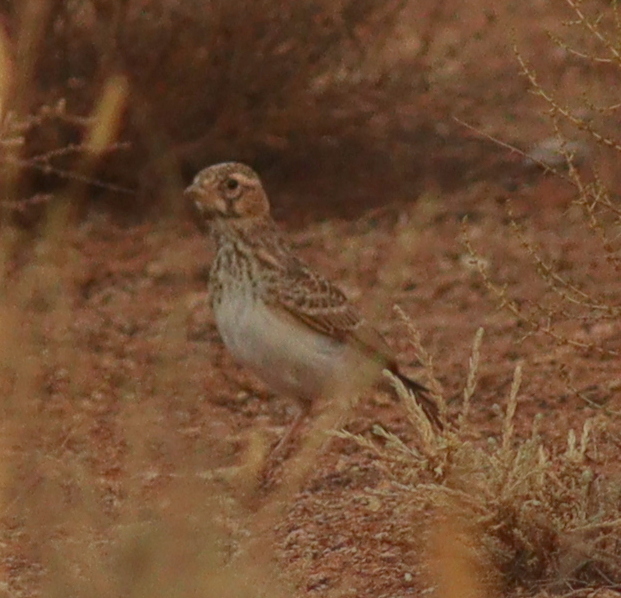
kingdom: Animalia
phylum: Chordata
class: Aves
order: Passeriformes
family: Alaudidae
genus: Calandrella
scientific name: Calandrella rufescens
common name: Lesser short-toed lark
